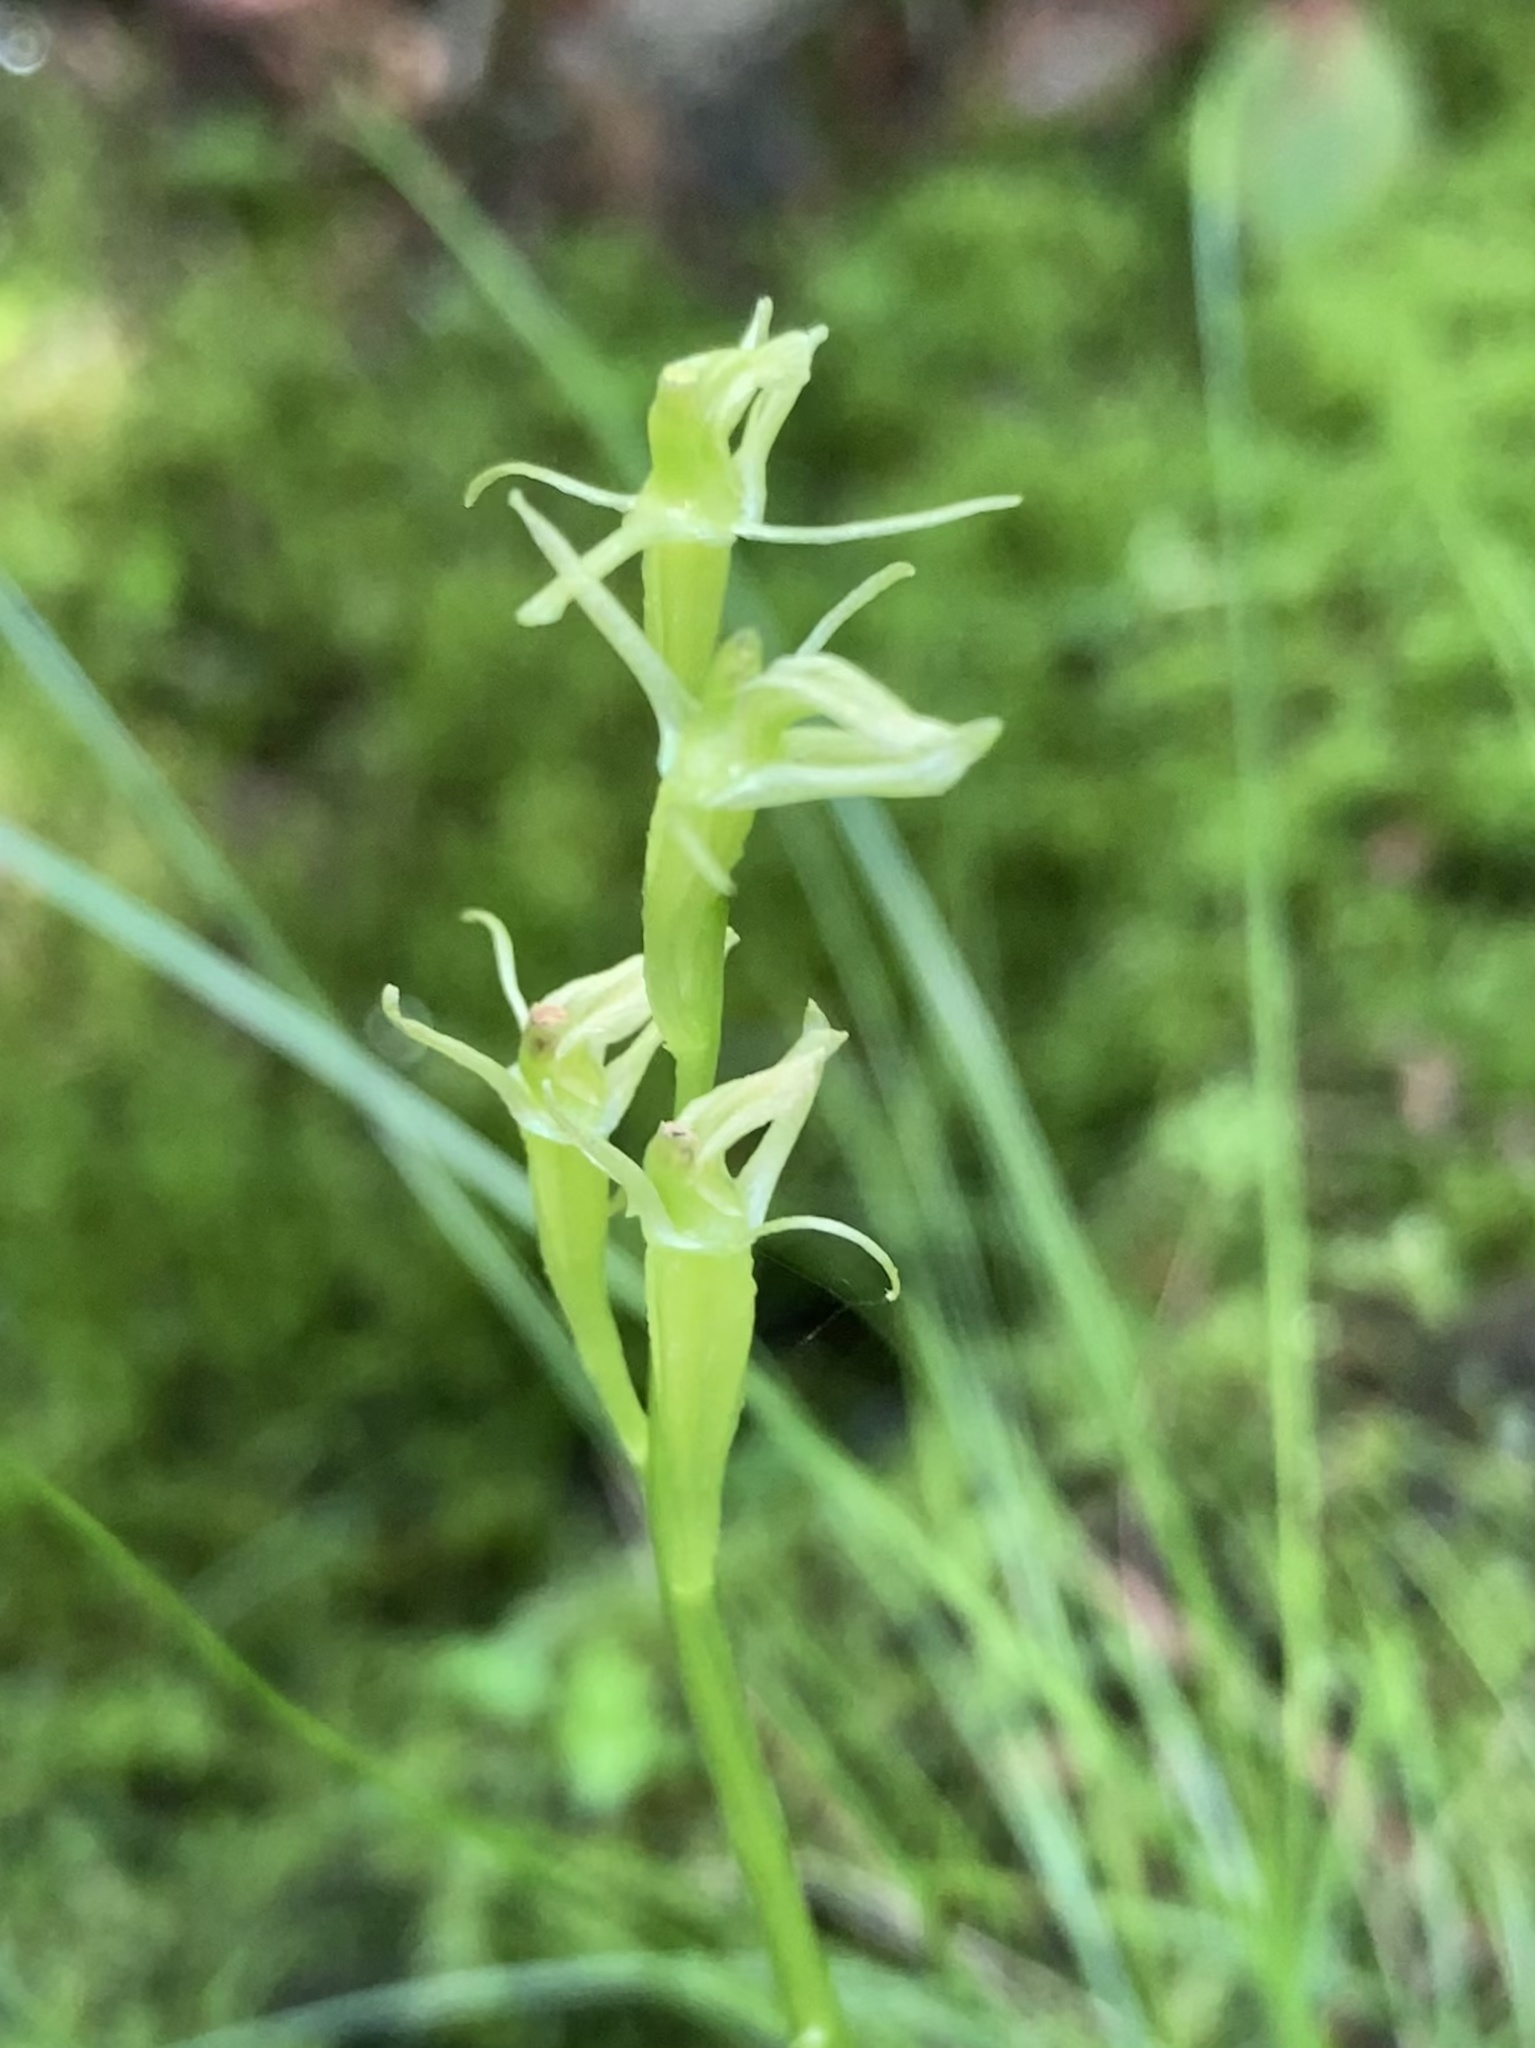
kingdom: Animalia
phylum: Arthropoda
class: Insecta
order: Coleoptera
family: Curculionidae
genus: Liparis
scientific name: Liparis loeselii
